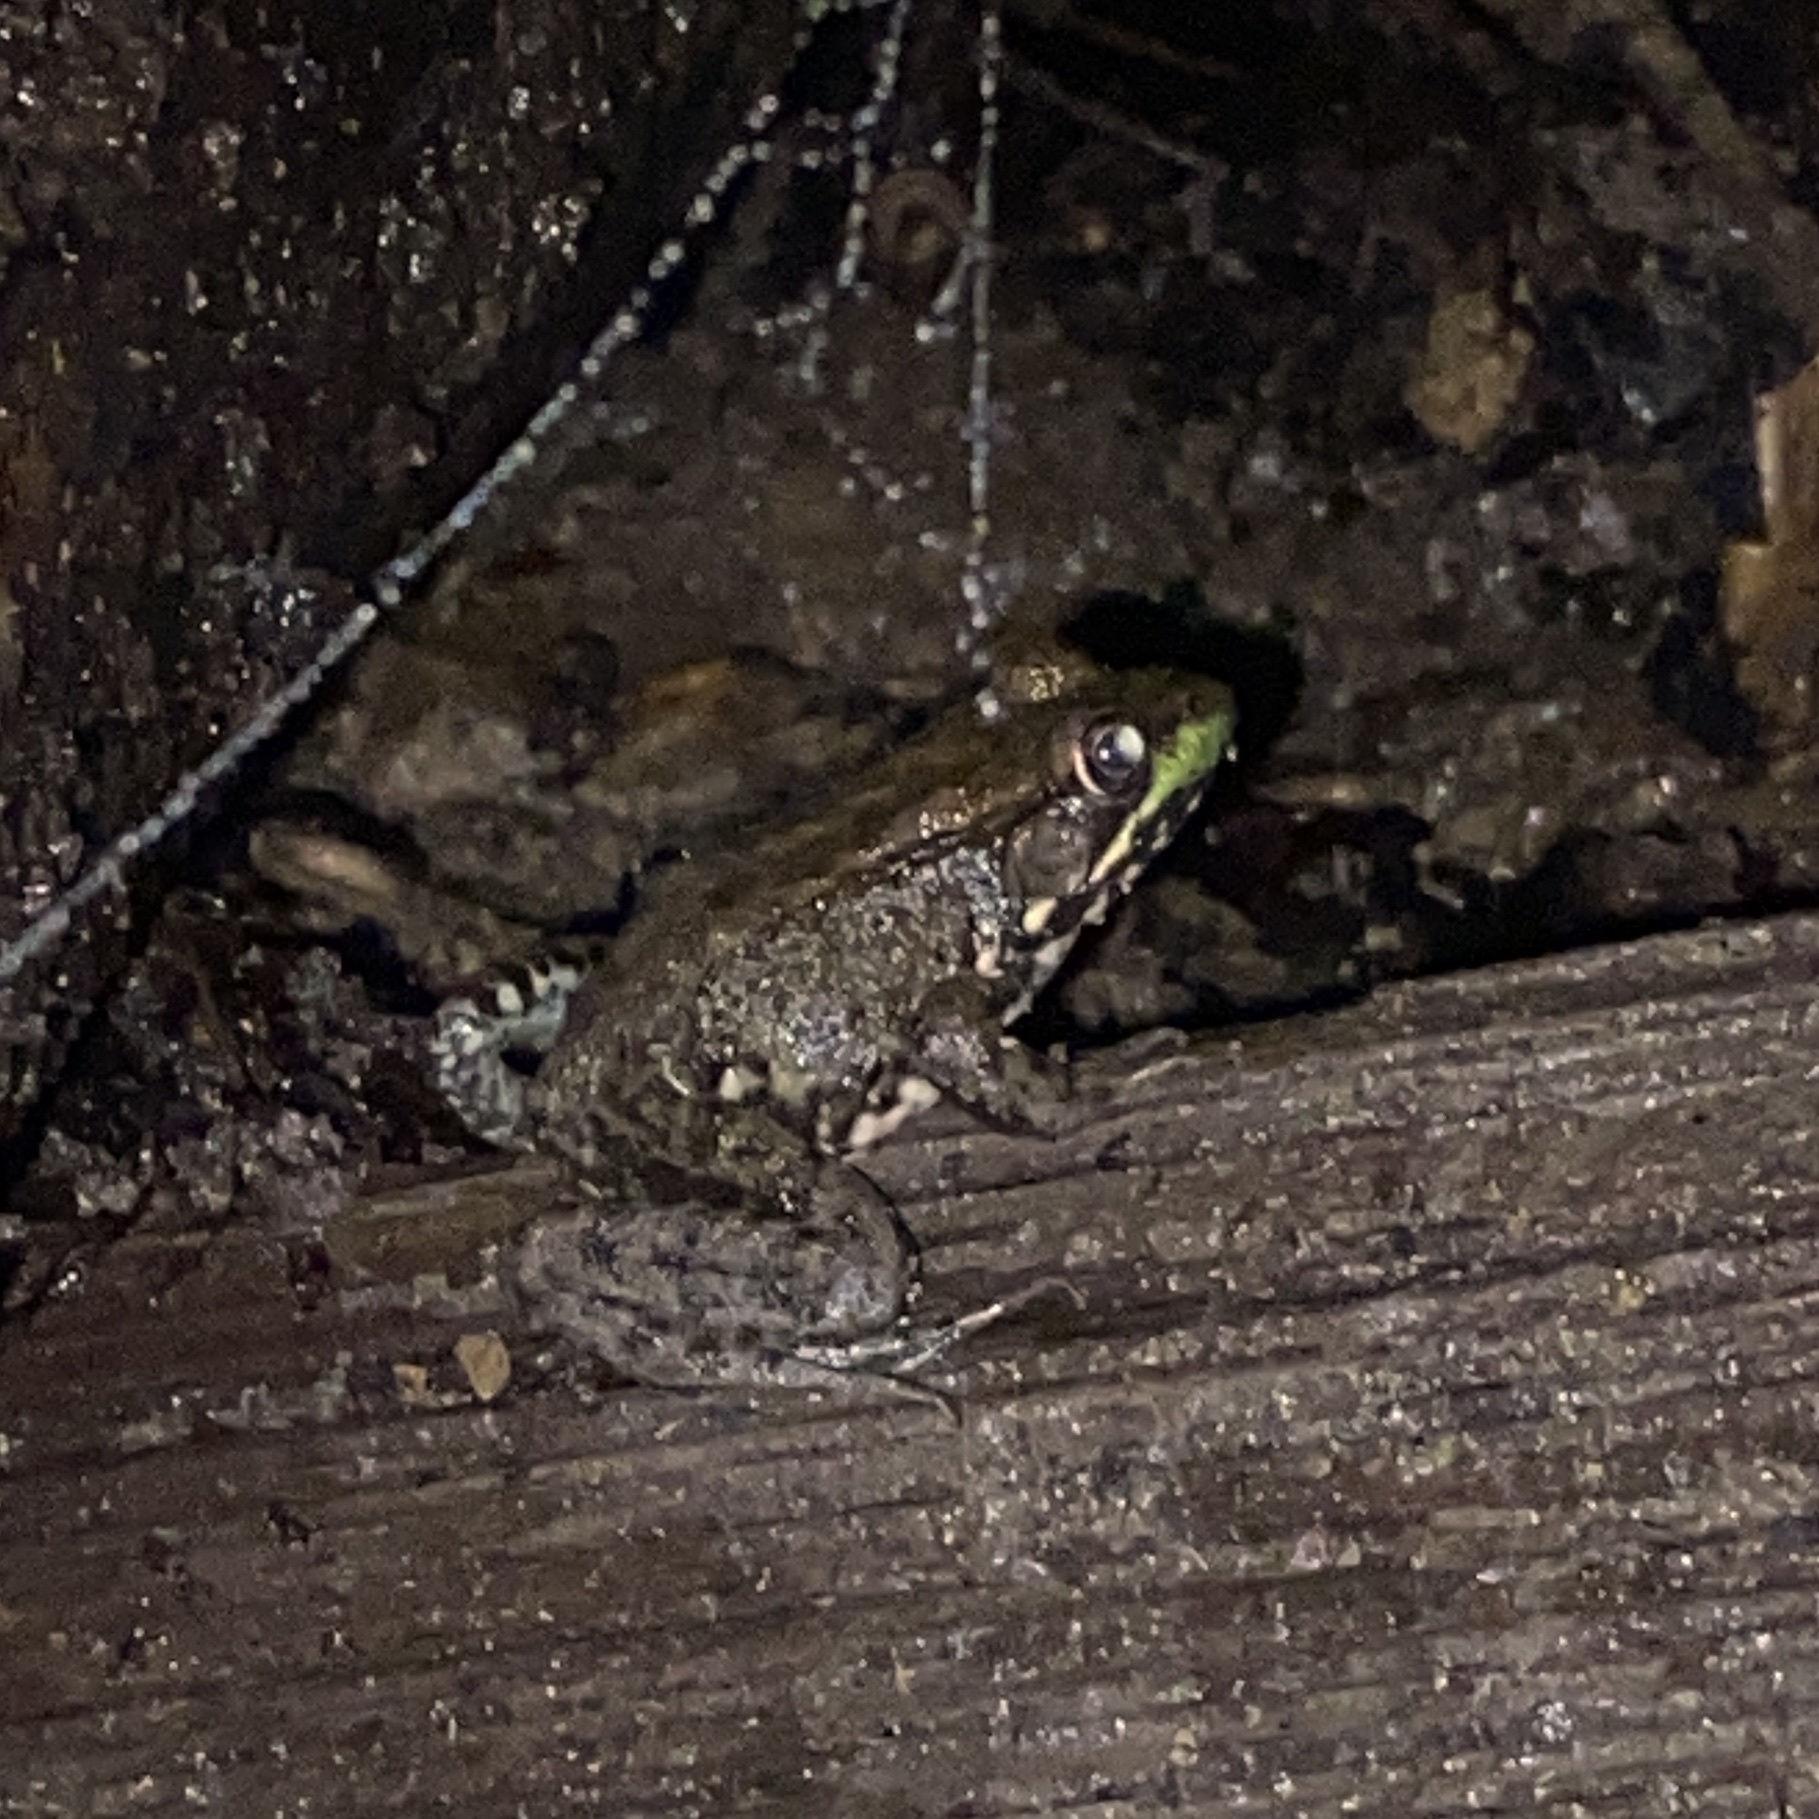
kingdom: Animalia
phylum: Chordata
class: Amphibia
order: Anura
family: Ranidae
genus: Lithobates
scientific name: Lithobates clamitans
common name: Green frog
